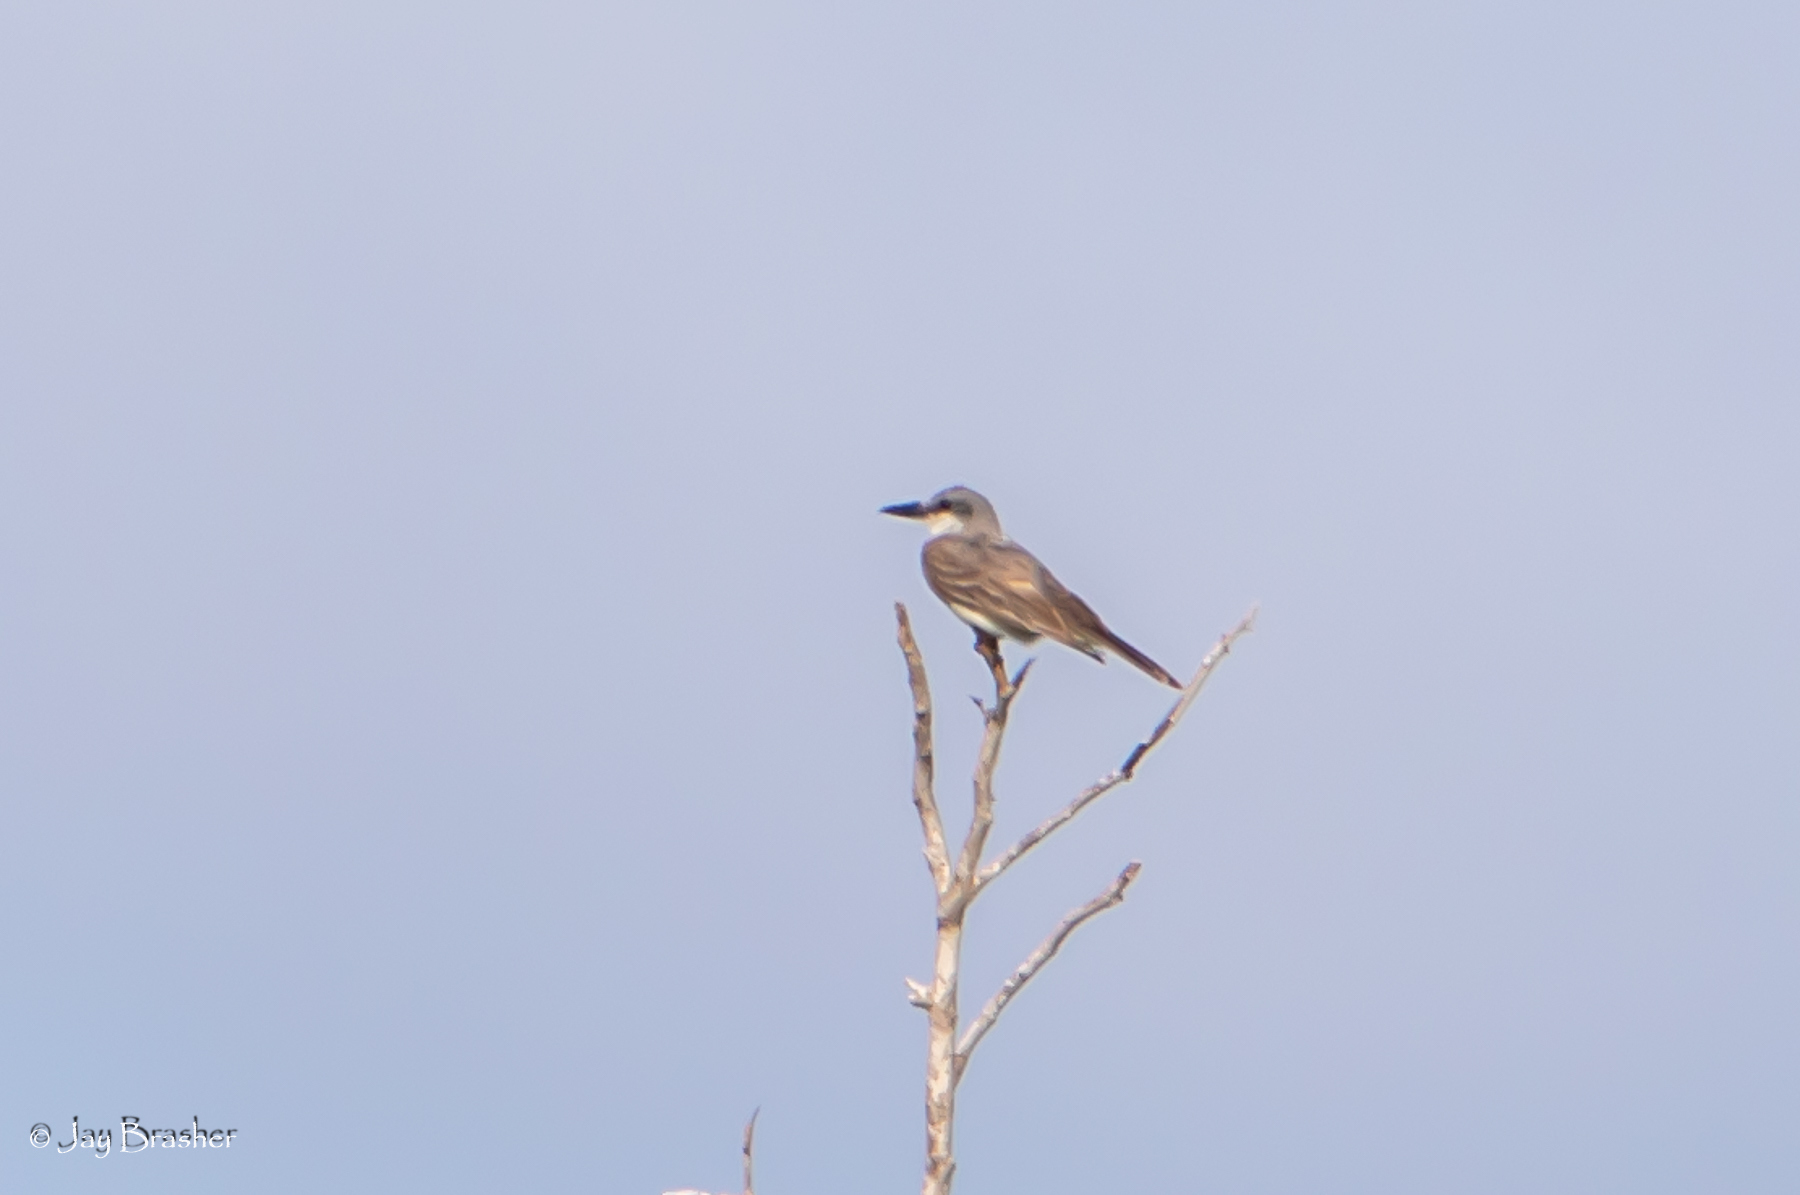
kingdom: Animalia
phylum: Chordata
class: Aves
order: Passeriformes
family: Tyrannidae
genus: Tyrannus
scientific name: Tyrannus dominicensis
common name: Gray kingbird
